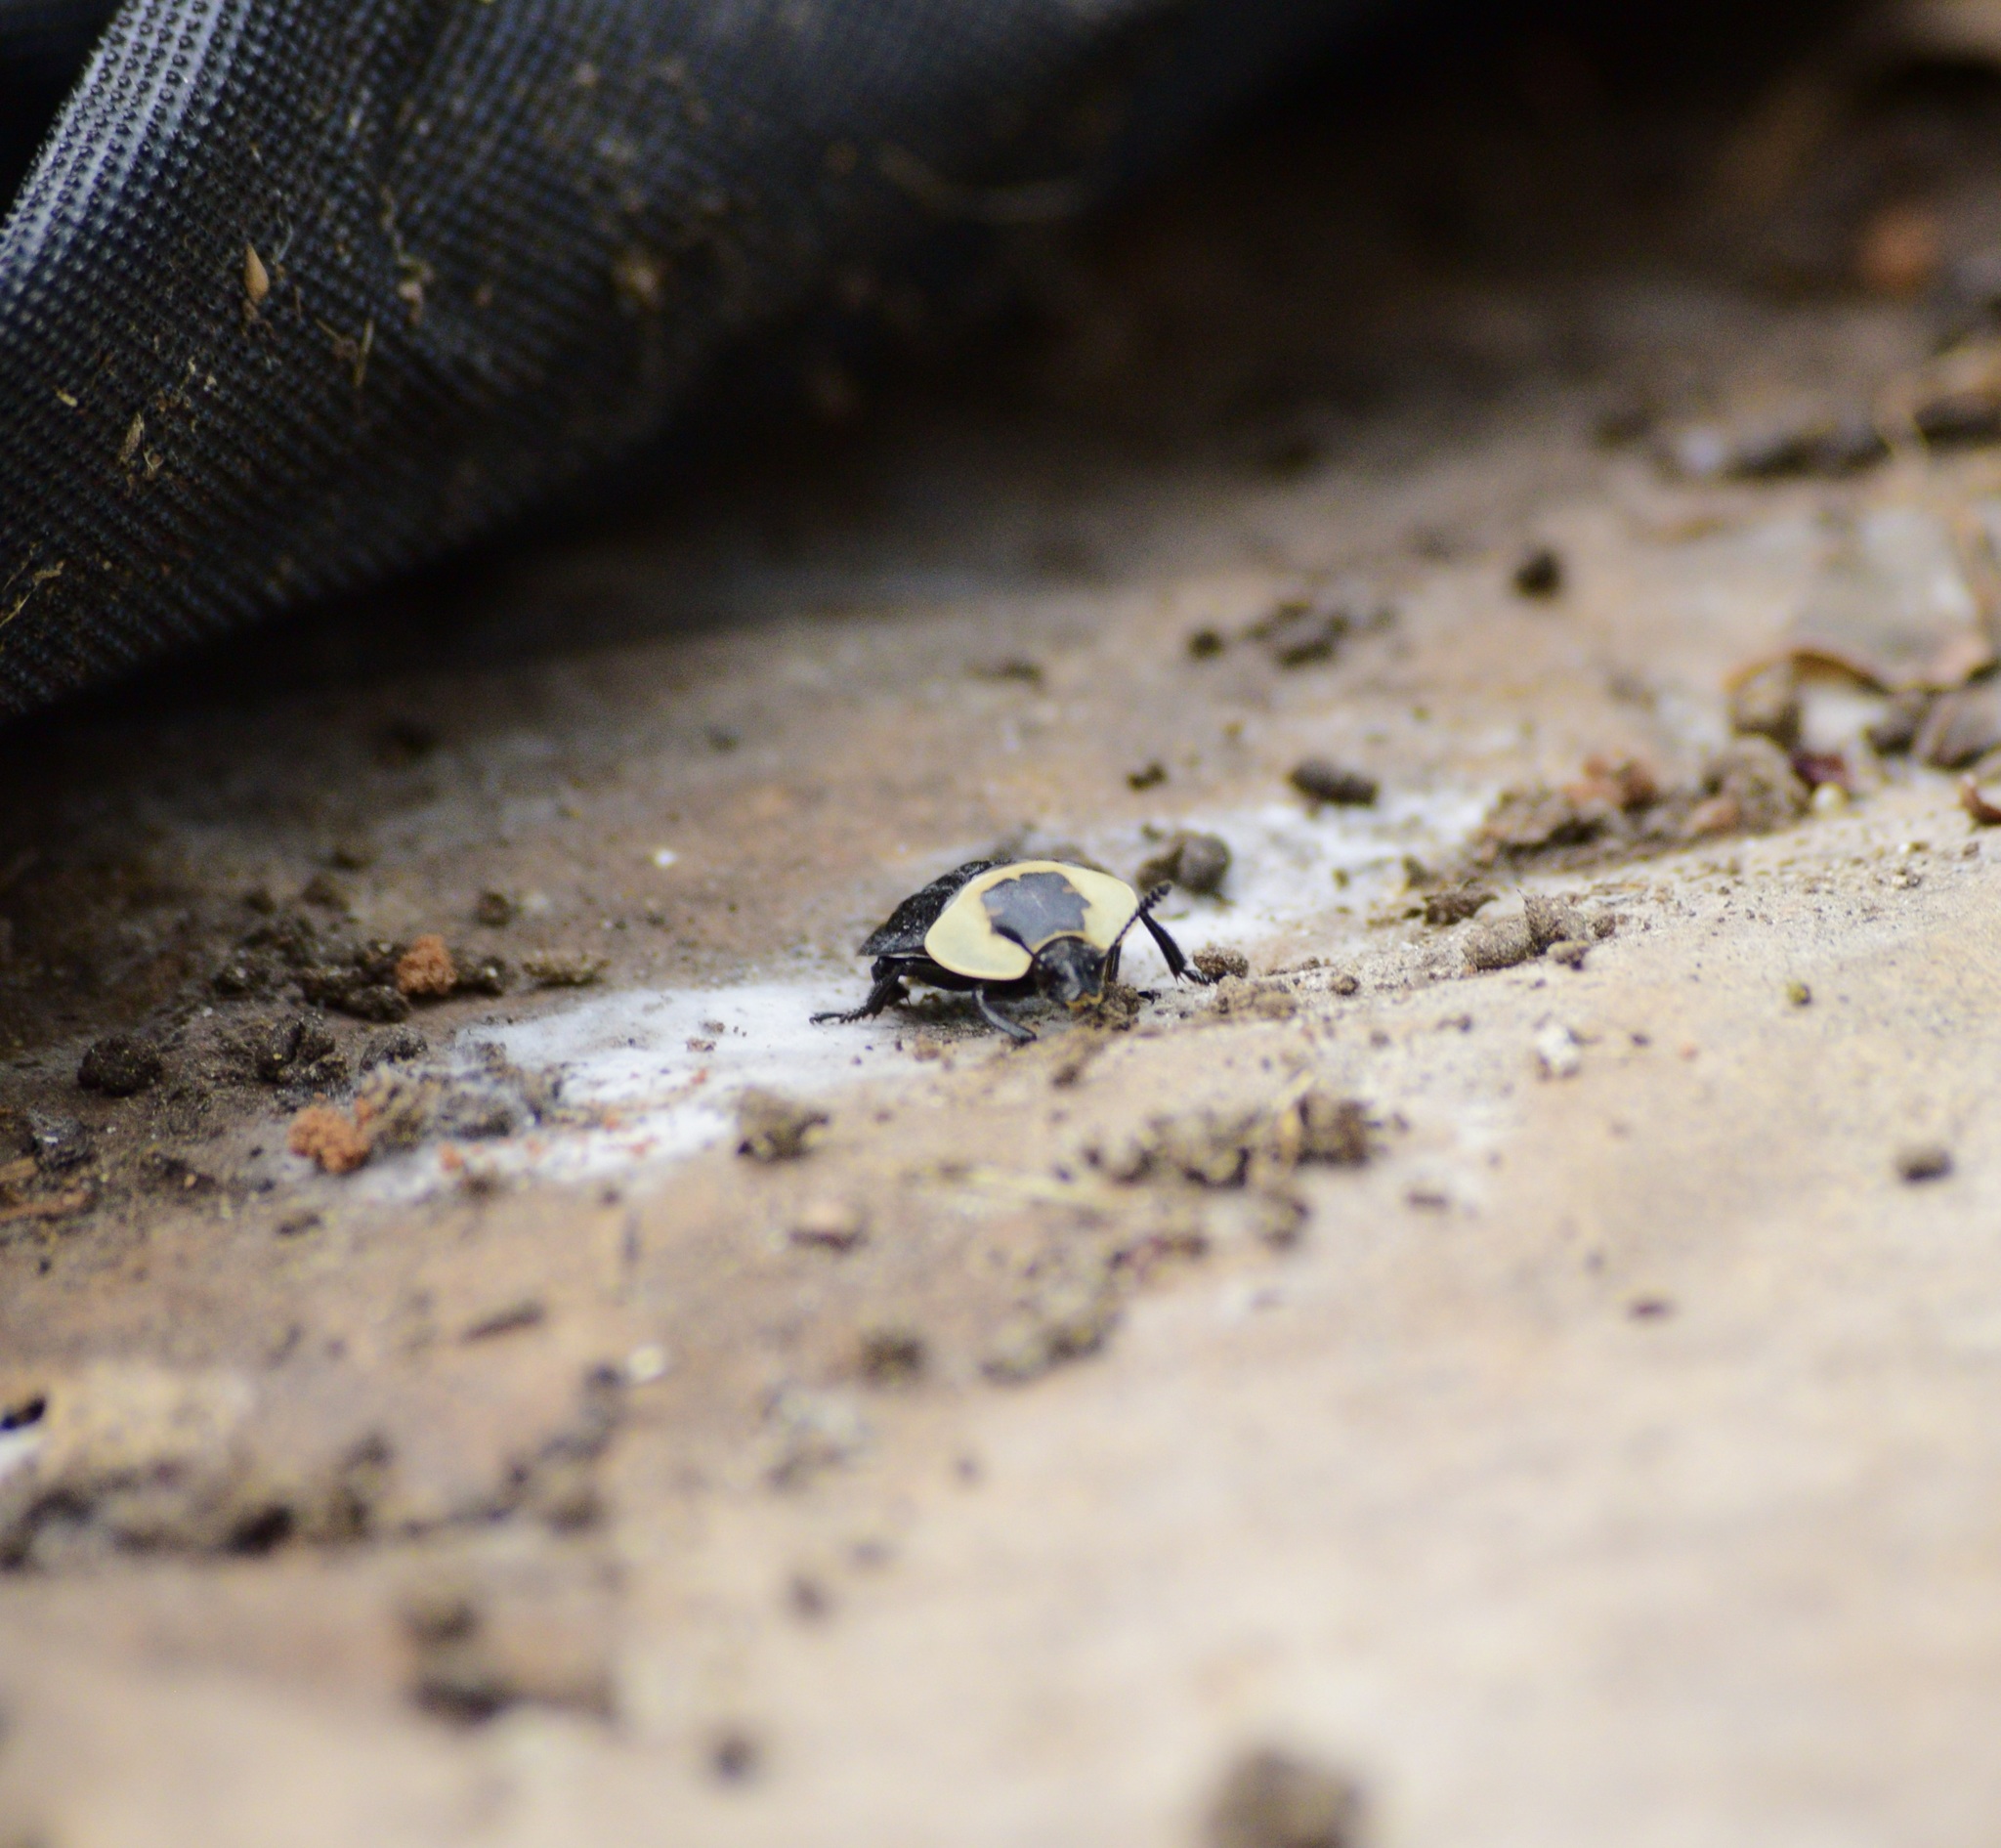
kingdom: Animalia
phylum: Arthropoda
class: Insecta
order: Coleoptera
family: Staphylinidae
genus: Necrophila
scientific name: Necrophila americana
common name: American carrion beetle
